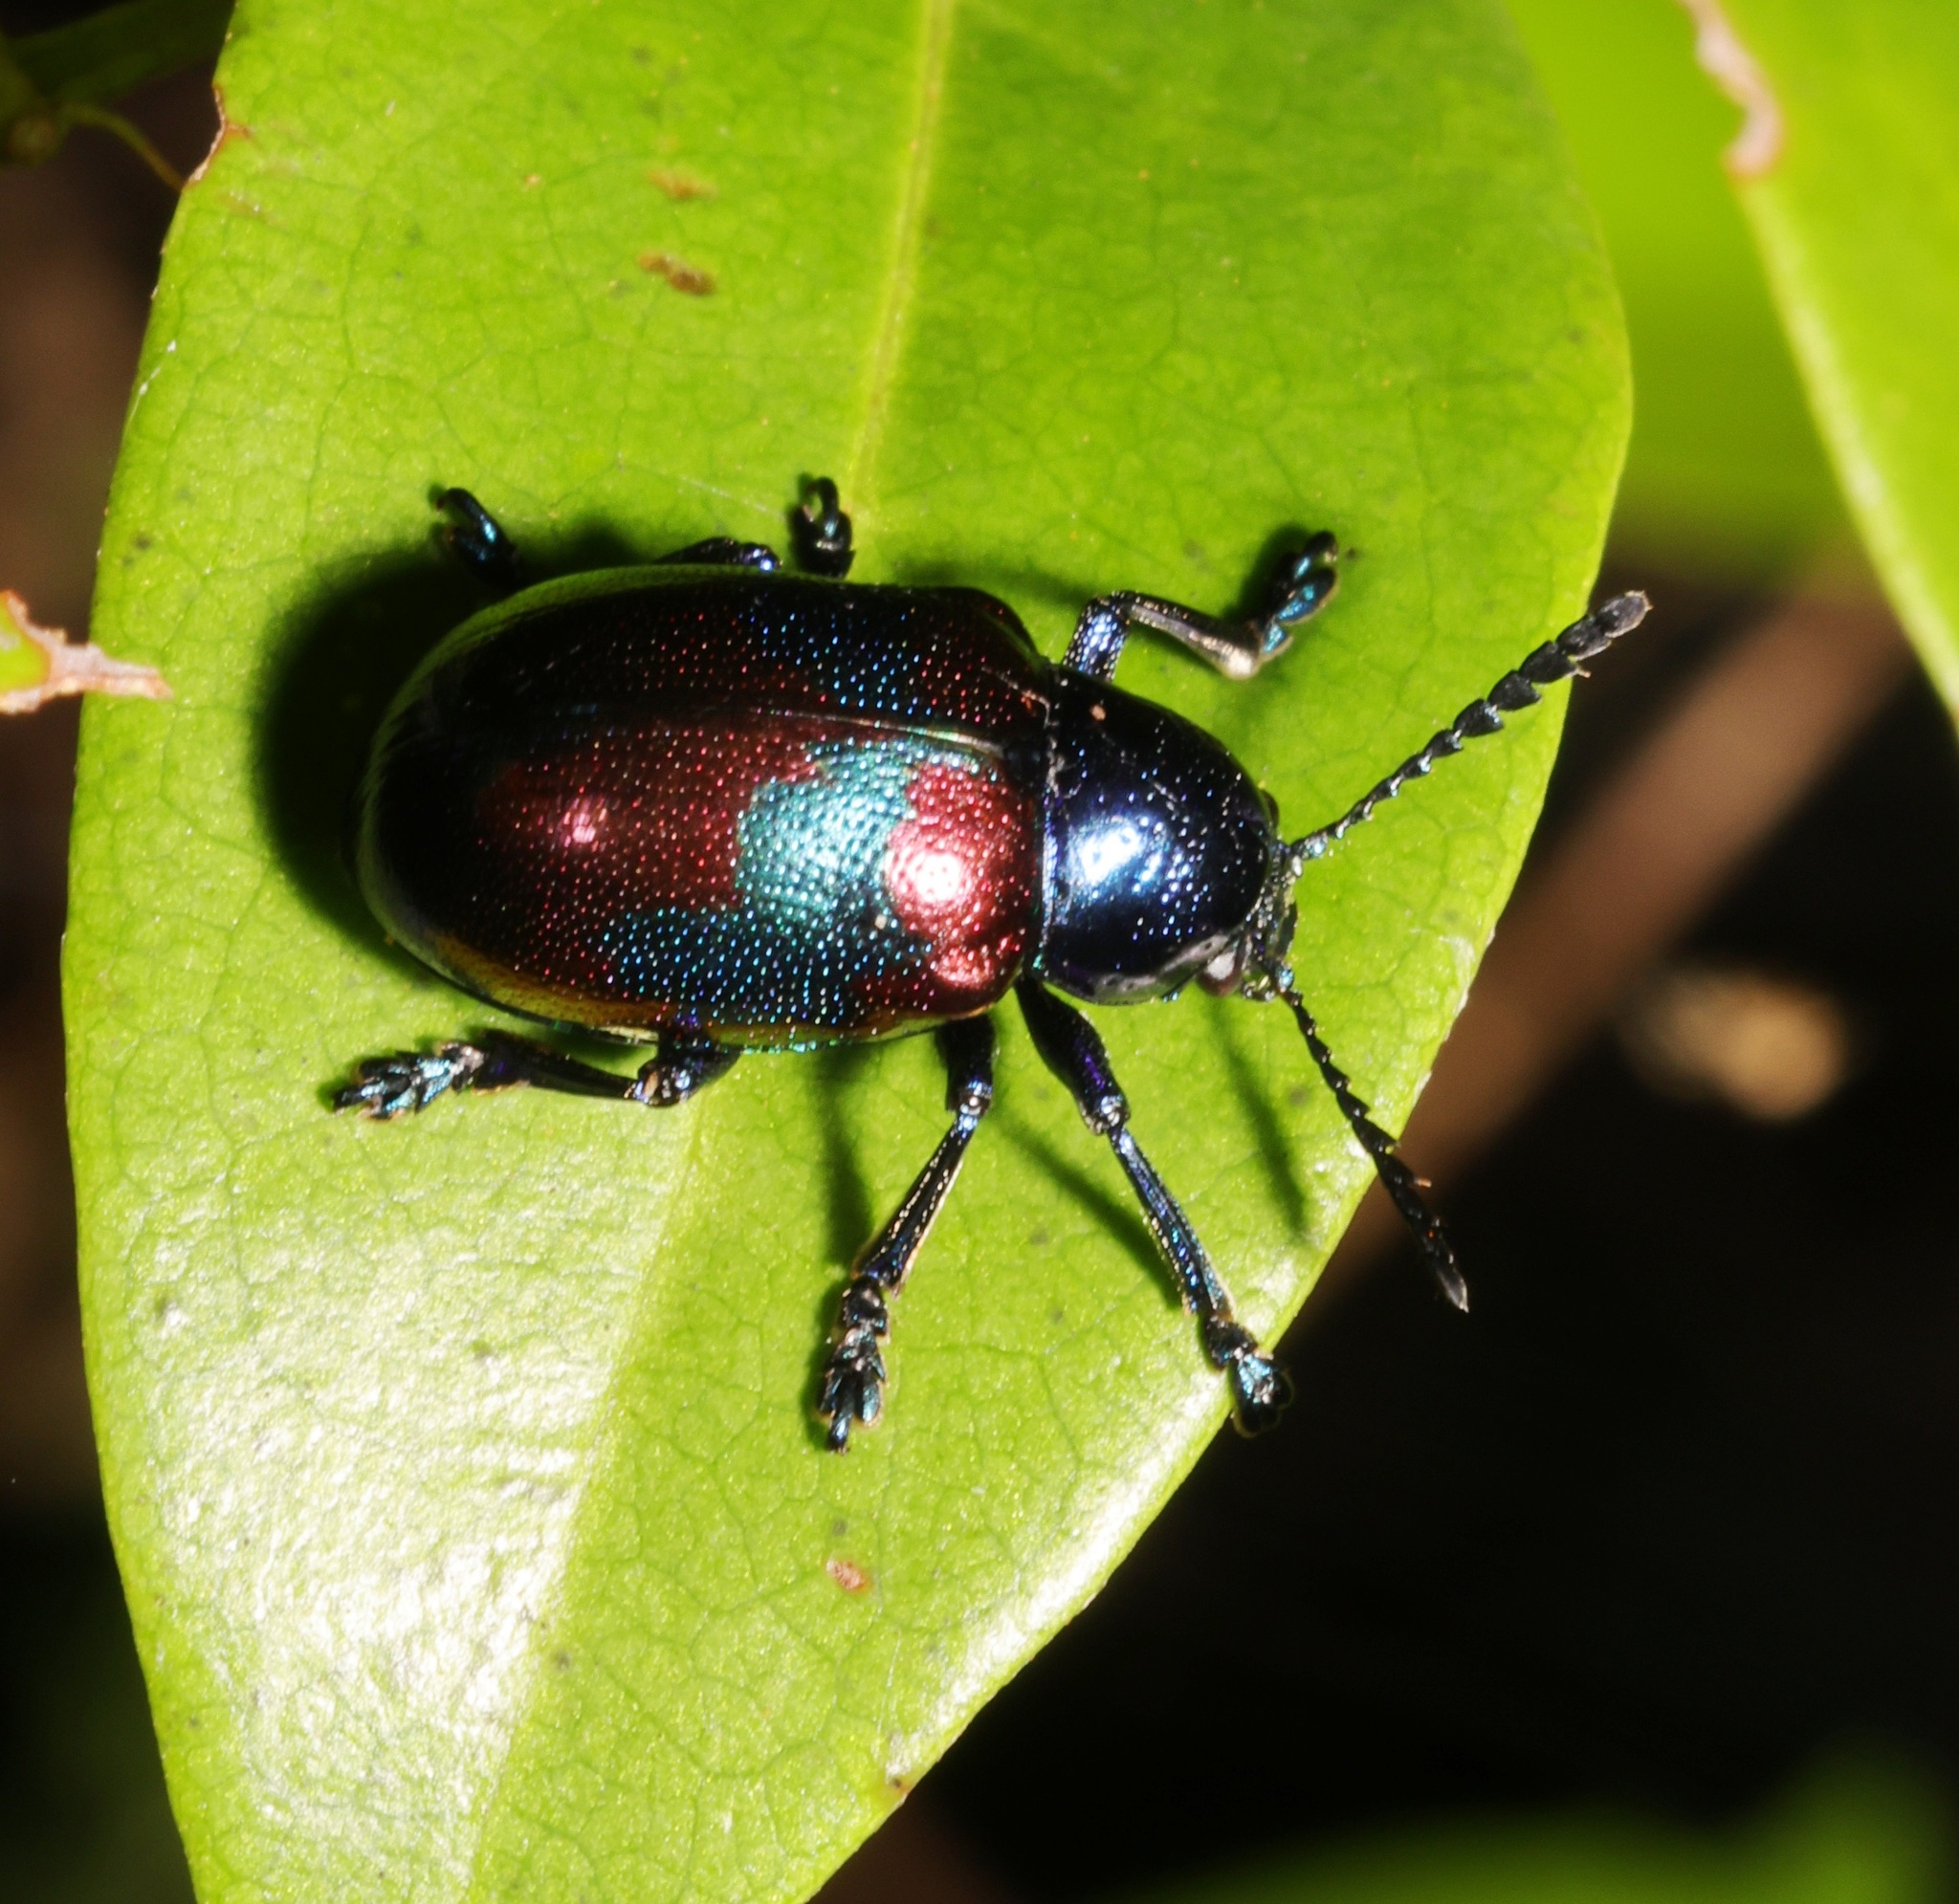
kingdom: Animalia
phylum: Arthropoda
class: Insecta
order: Coleoptera
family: Chrysomelidae
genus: Platycorynus
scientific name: Platycorynus undatus
